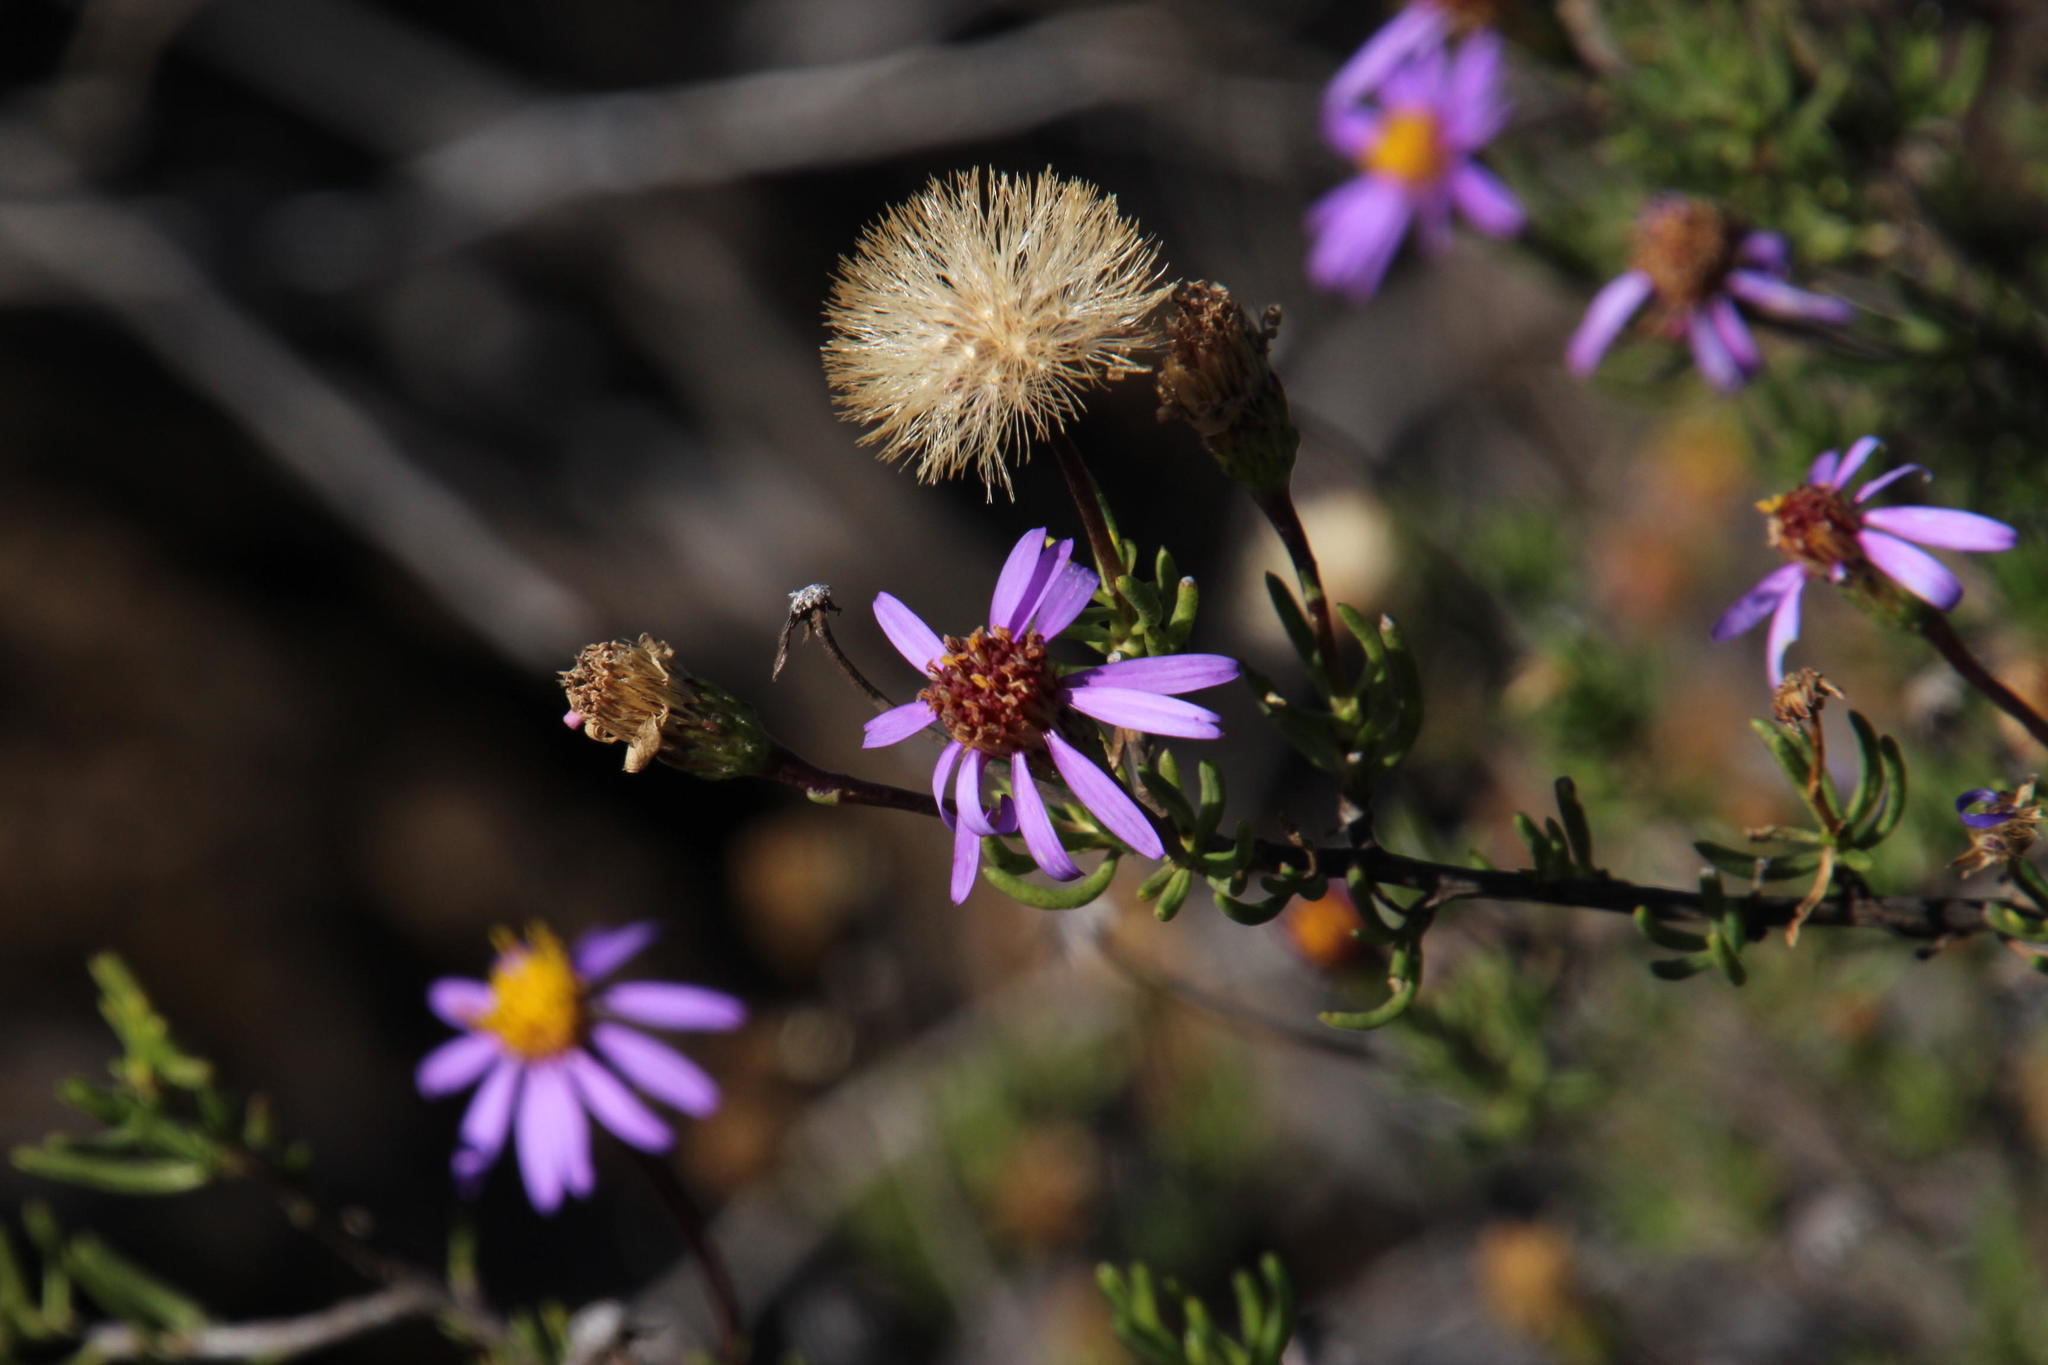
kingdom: Plantae
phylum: Tracheophyta
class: Magnoliopsida
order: Asterales
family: Asteraceae
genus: Felicia
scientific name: Felicia filifolia
